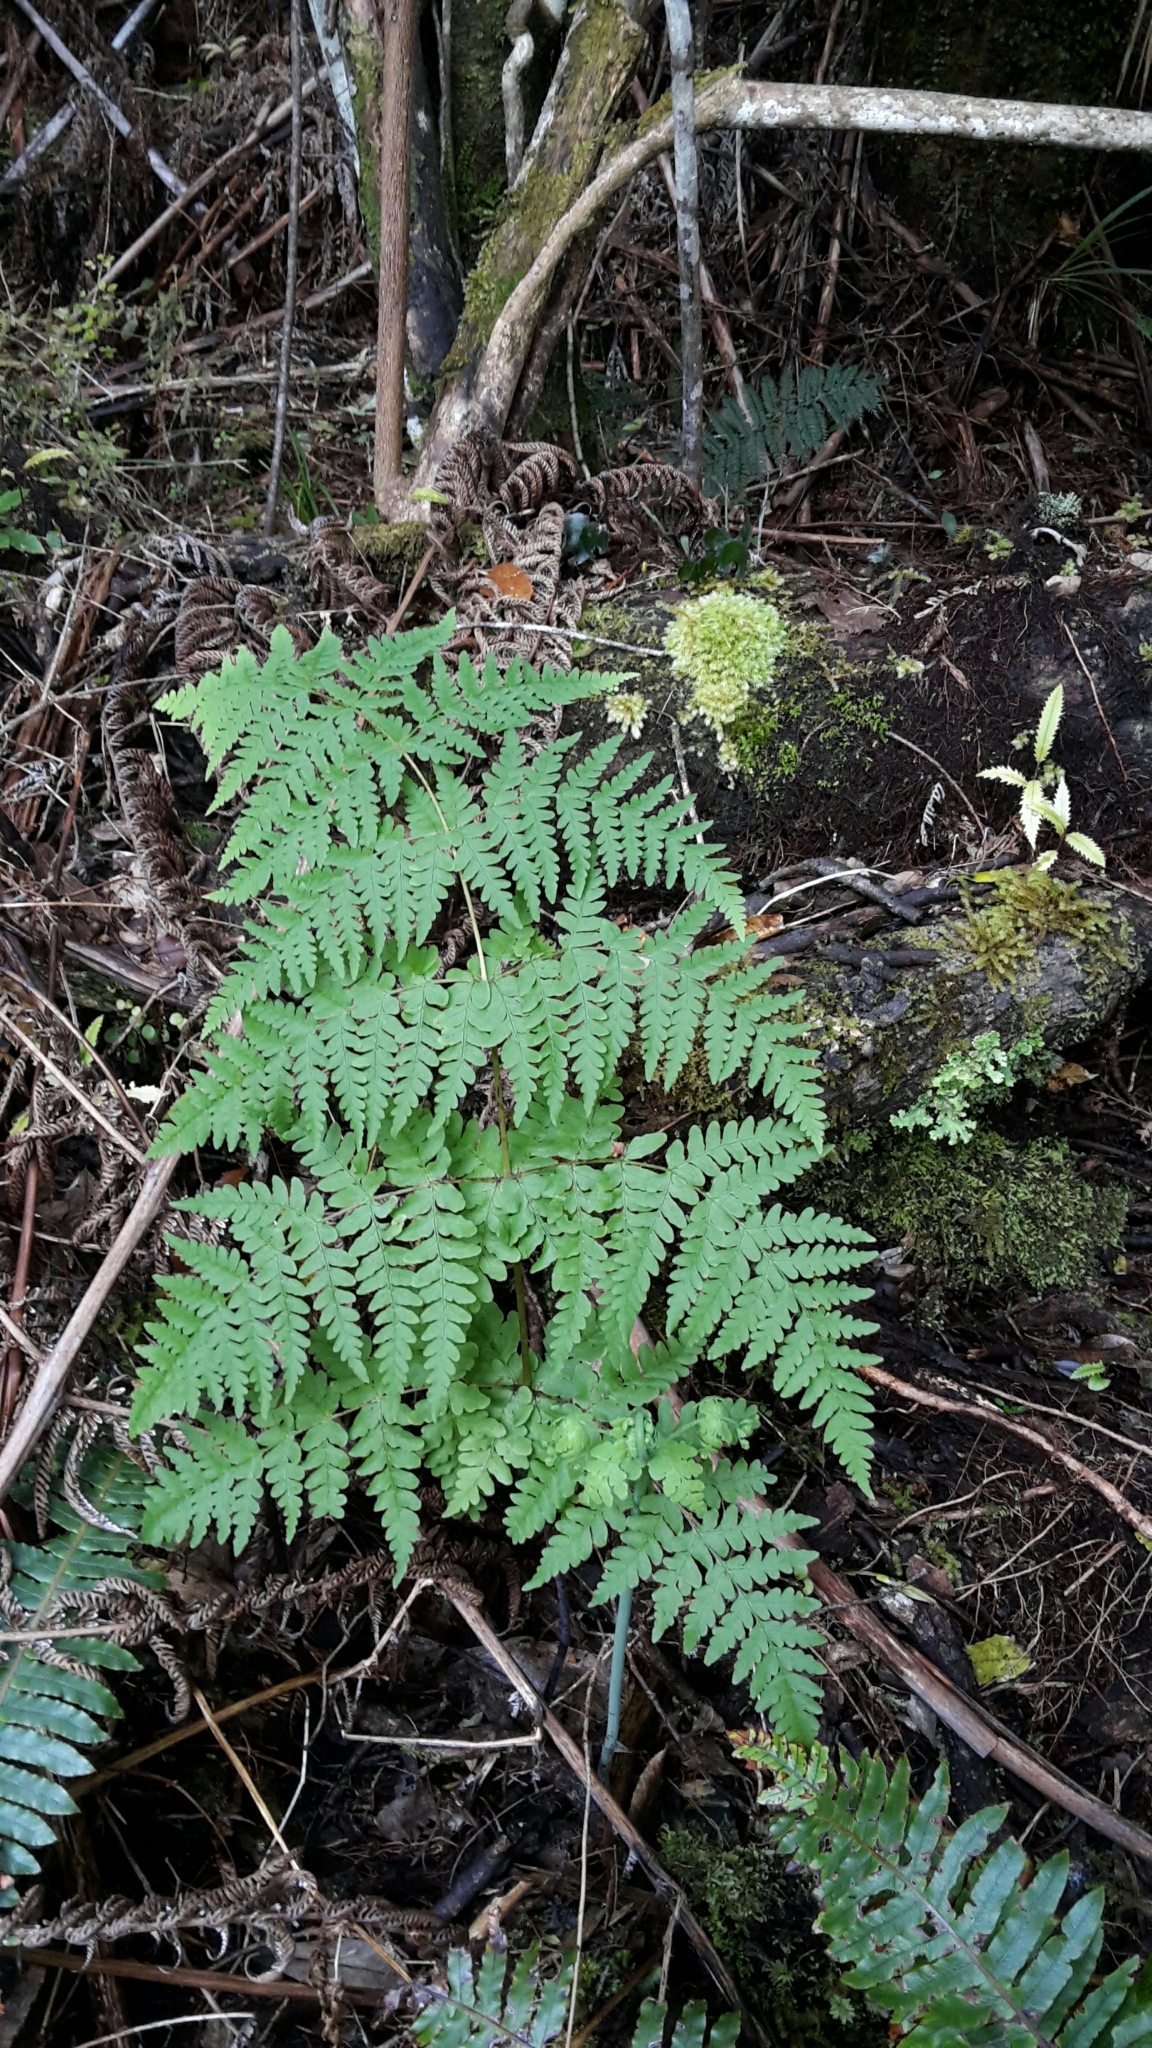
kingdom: Plantae
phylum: Tracheophyta
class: Polypodiopsida
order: Polypodiales
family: Dennstaedtiaceae
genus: Histiopteris
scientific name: Histiopteris incisa
